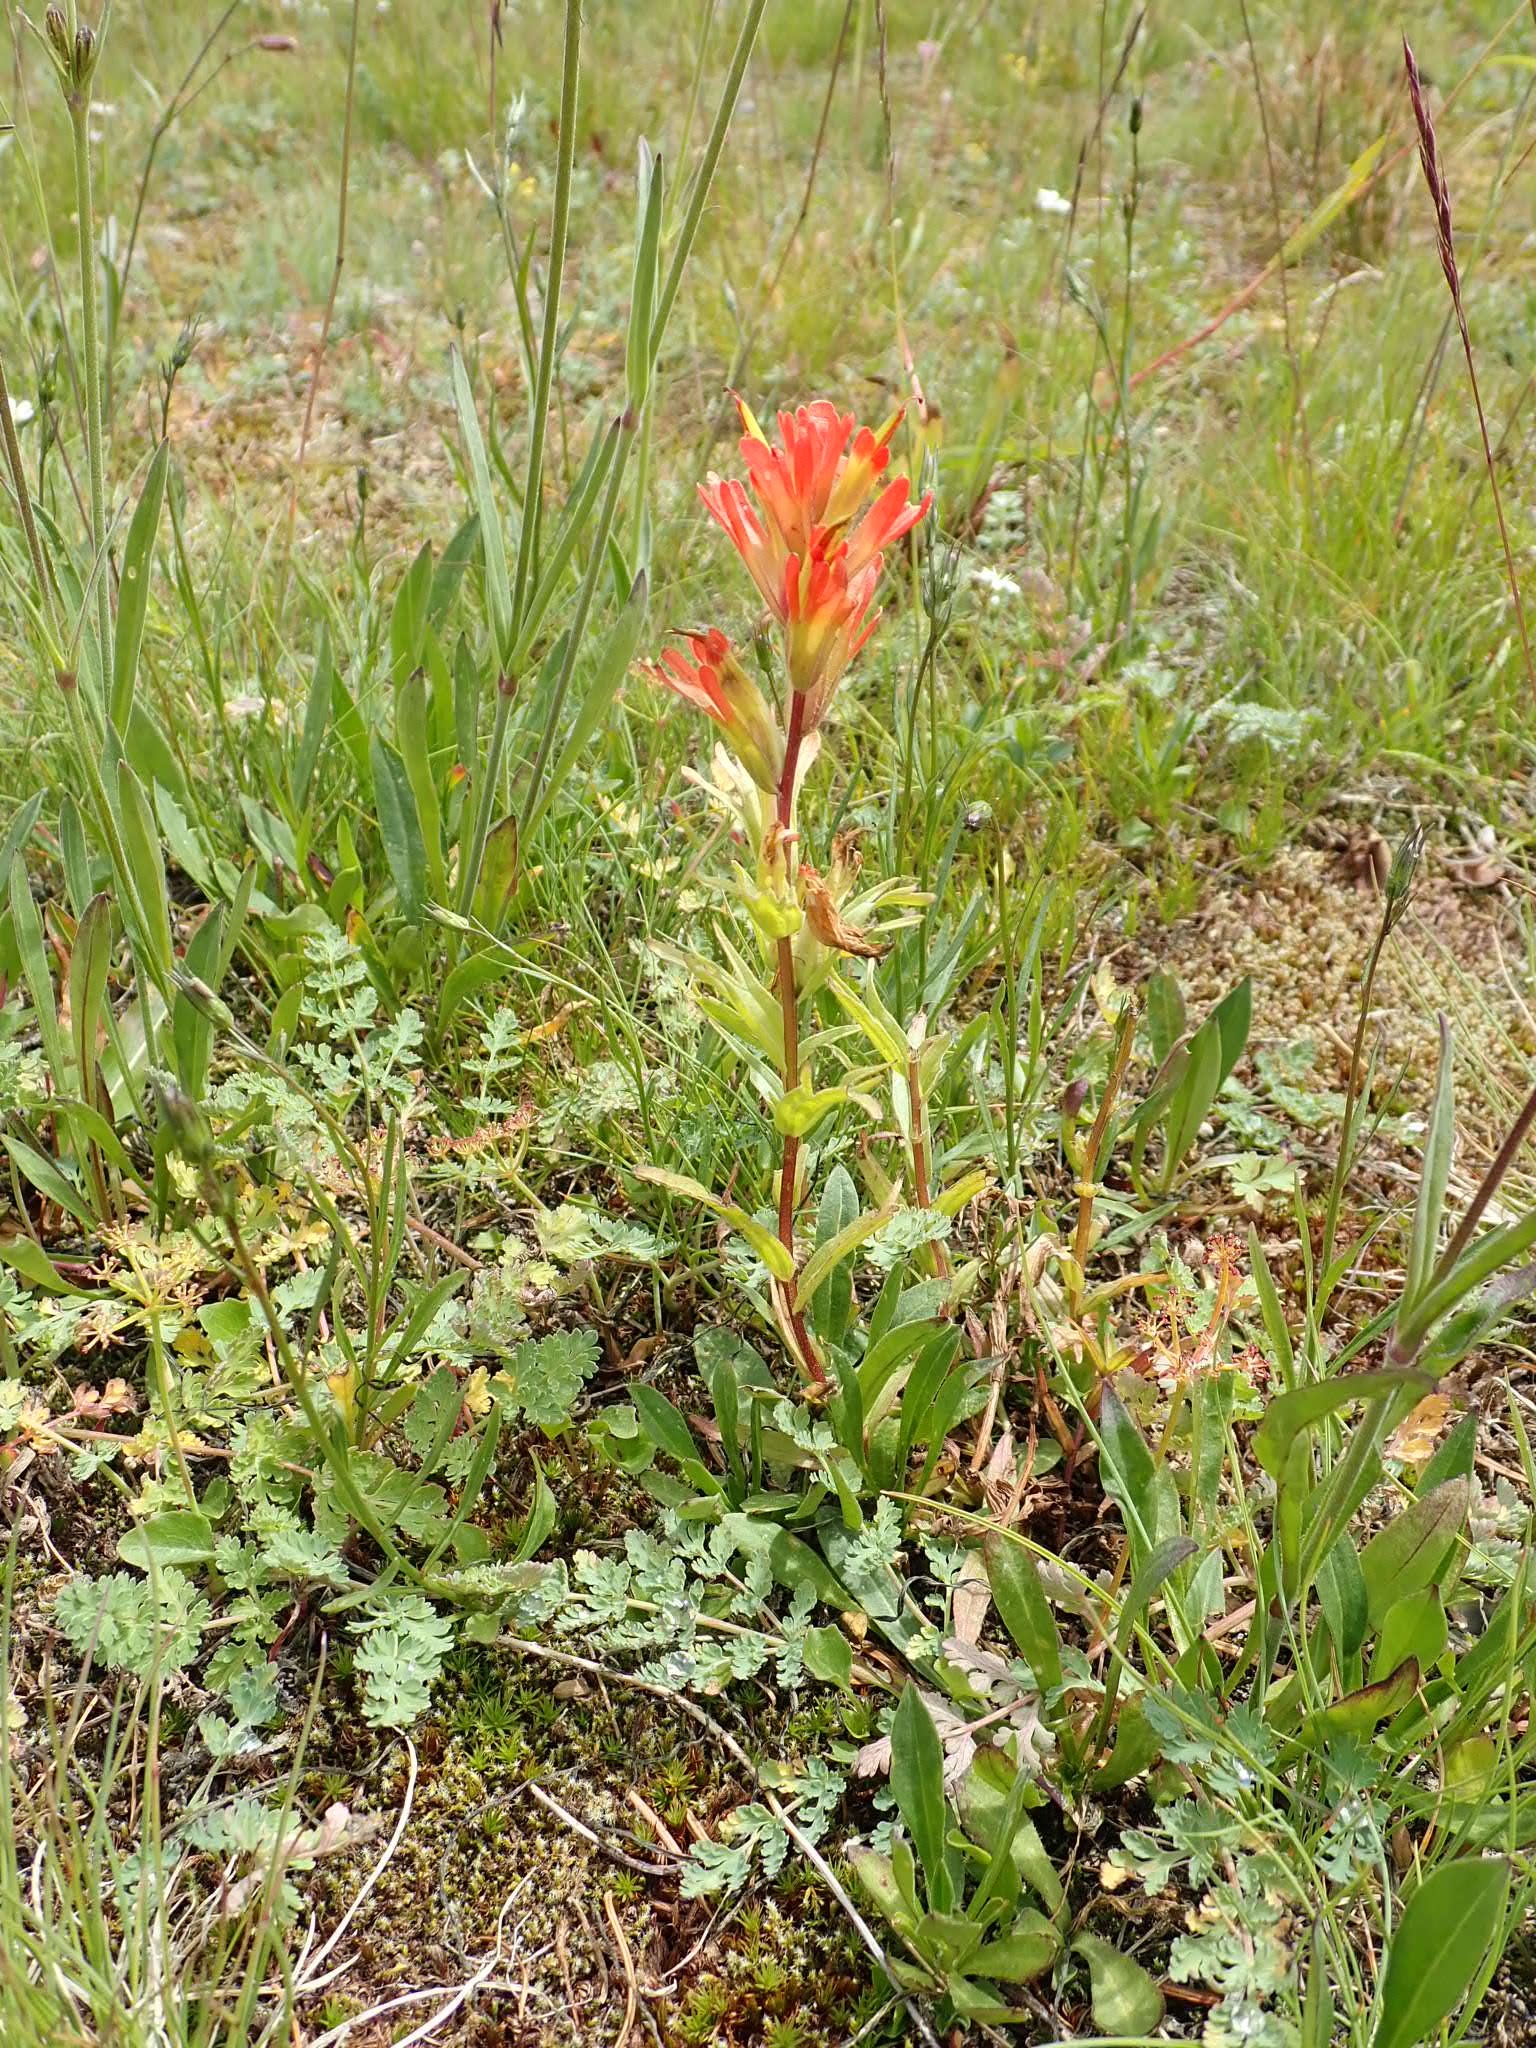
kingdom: Plantae
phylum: Tracheophyta
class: Magnoliopsida
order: Lamiales
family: Orobanchaceae
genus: Castilleja
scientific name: Castilleja hispida
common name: Bristly paintbrush
